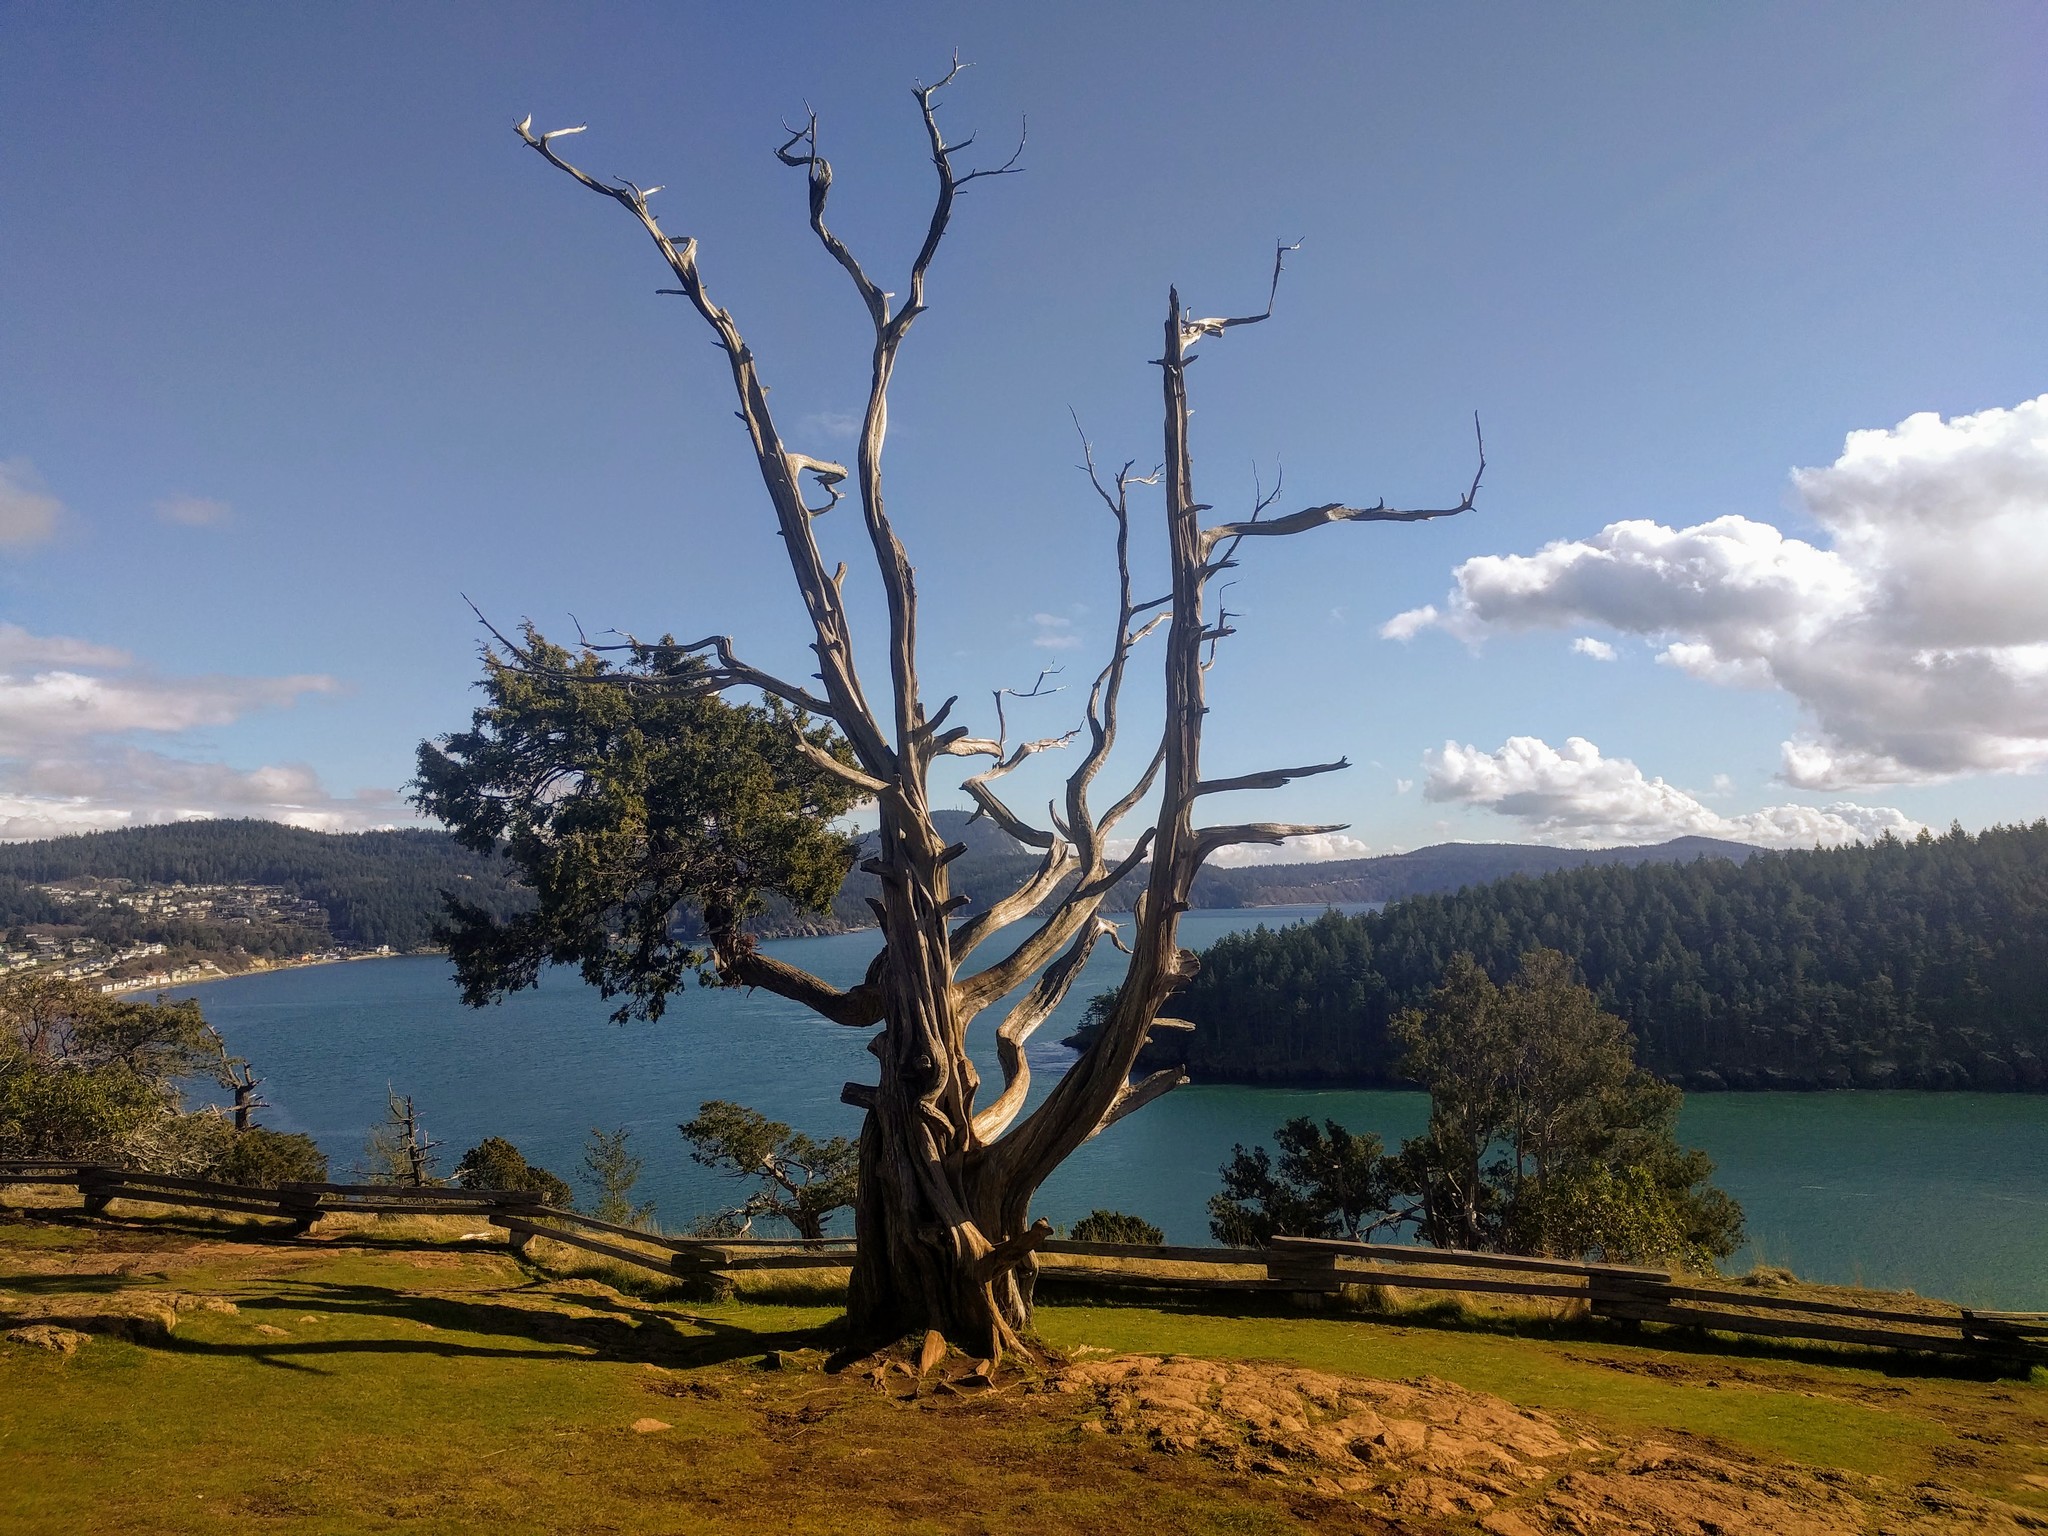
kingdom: Plantae
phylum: Tracheophyta
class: Pinopsida
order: Pinales
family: Cupressaceae
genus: Juniperus
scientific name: Juniperus scopulorum
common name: Rocky mountain juniper
